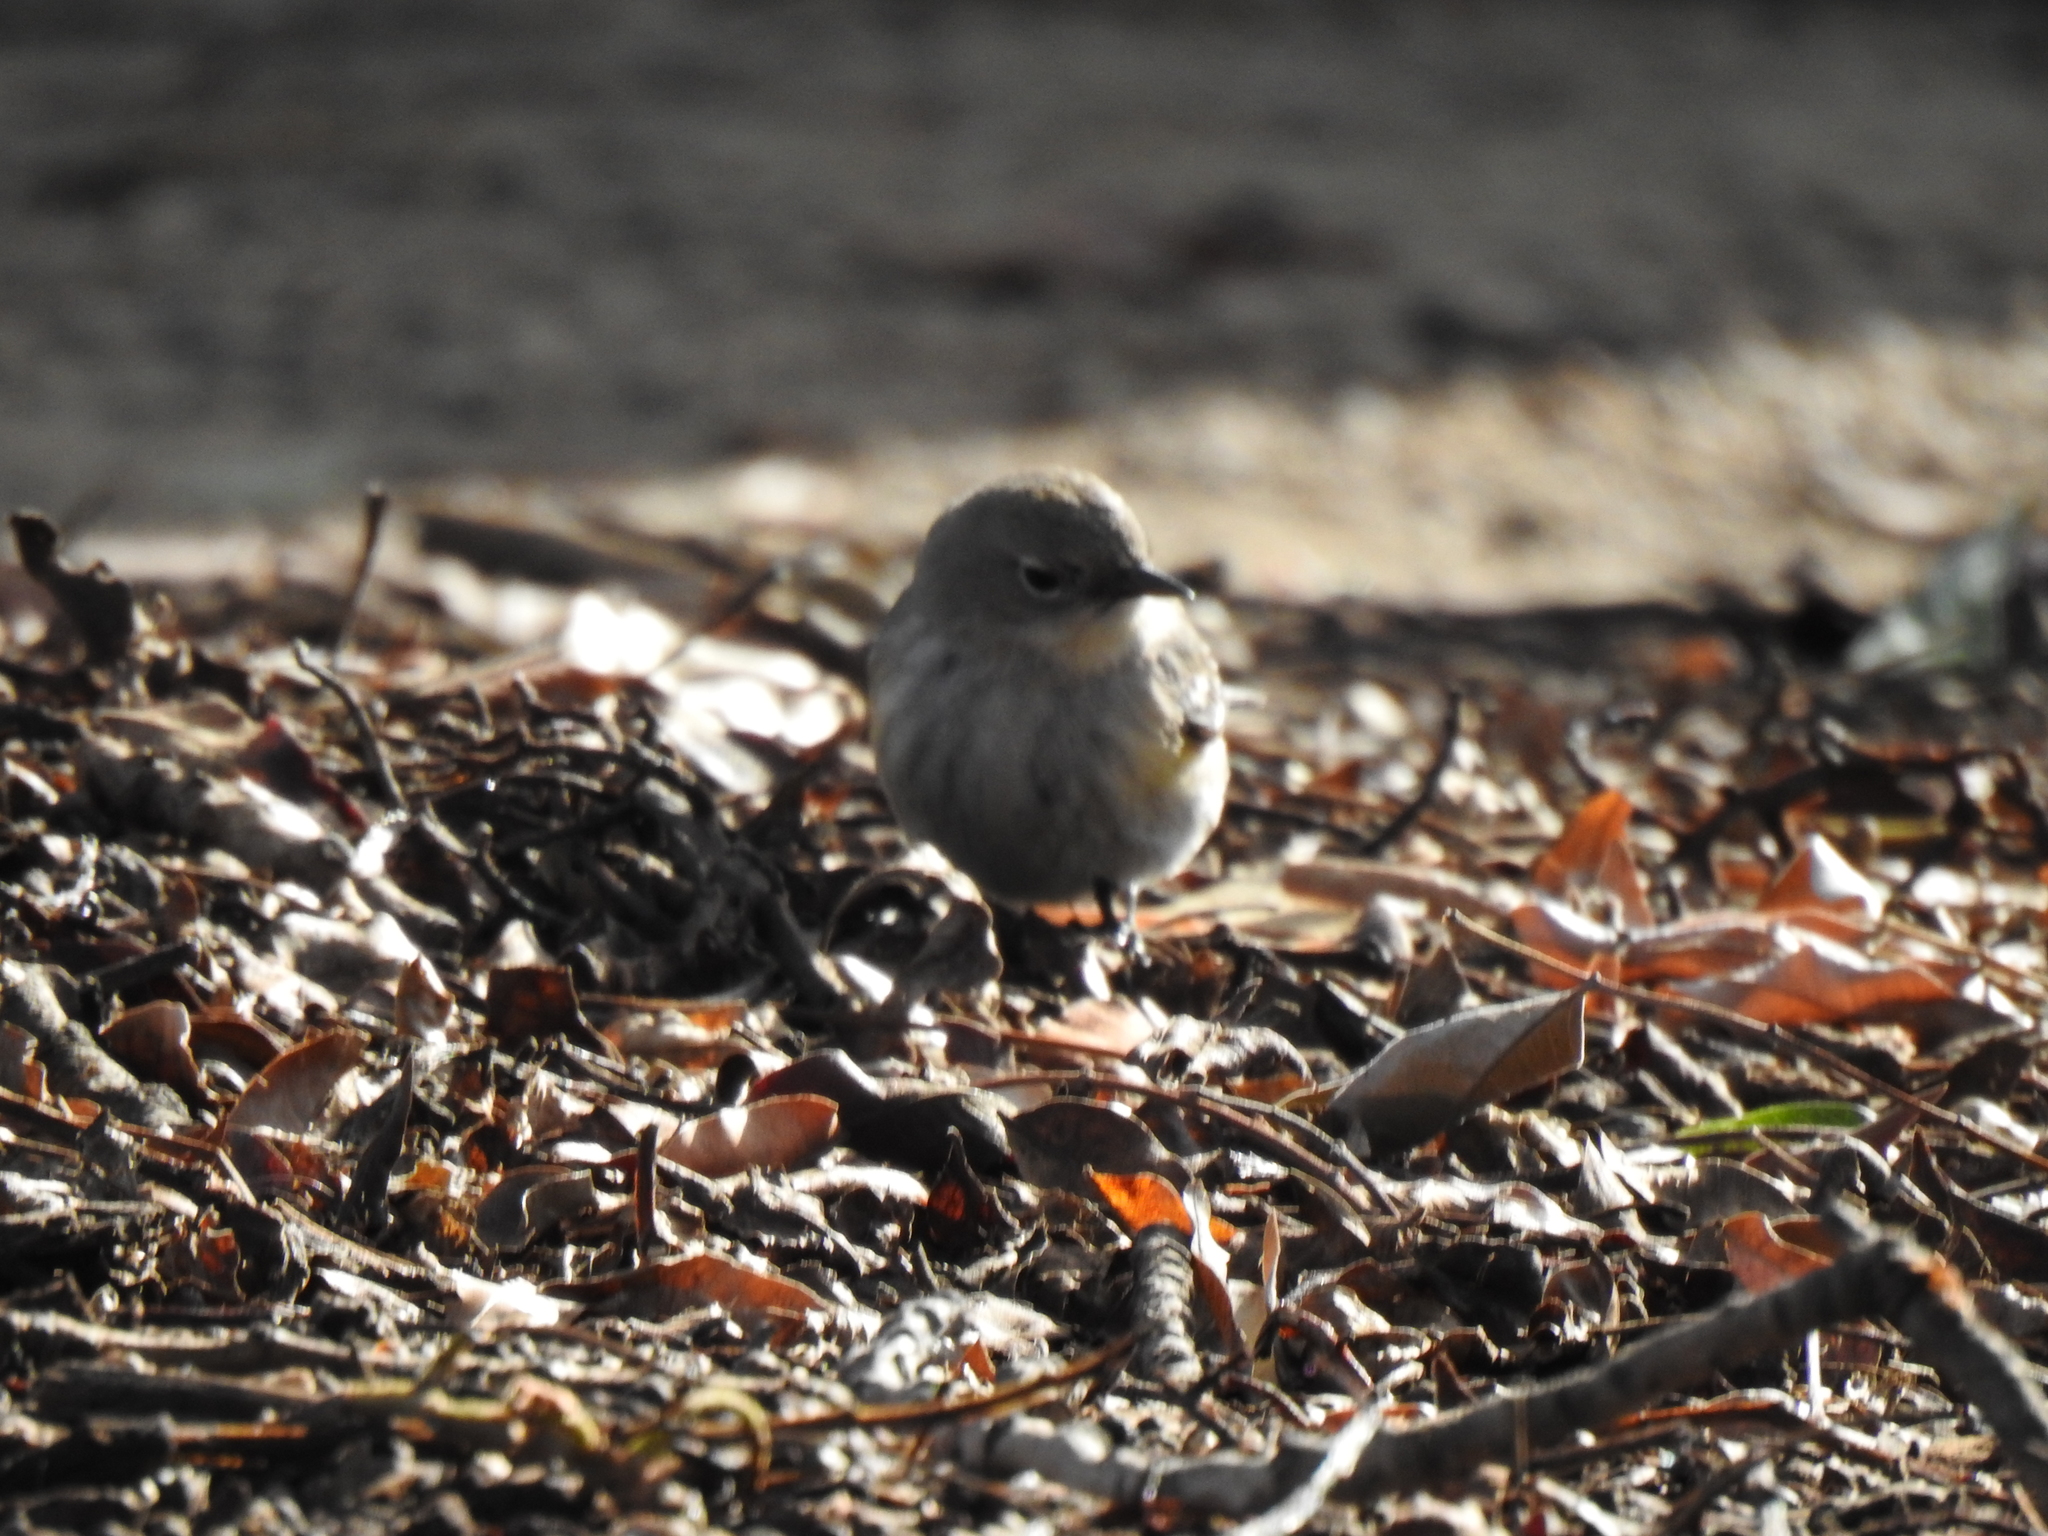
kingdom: Animalia
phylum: Chordata
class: Aves
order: Passeriformes
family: Parulidae
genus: Setophaga
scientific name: Setophaga coronata
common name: Myrtle warbler
